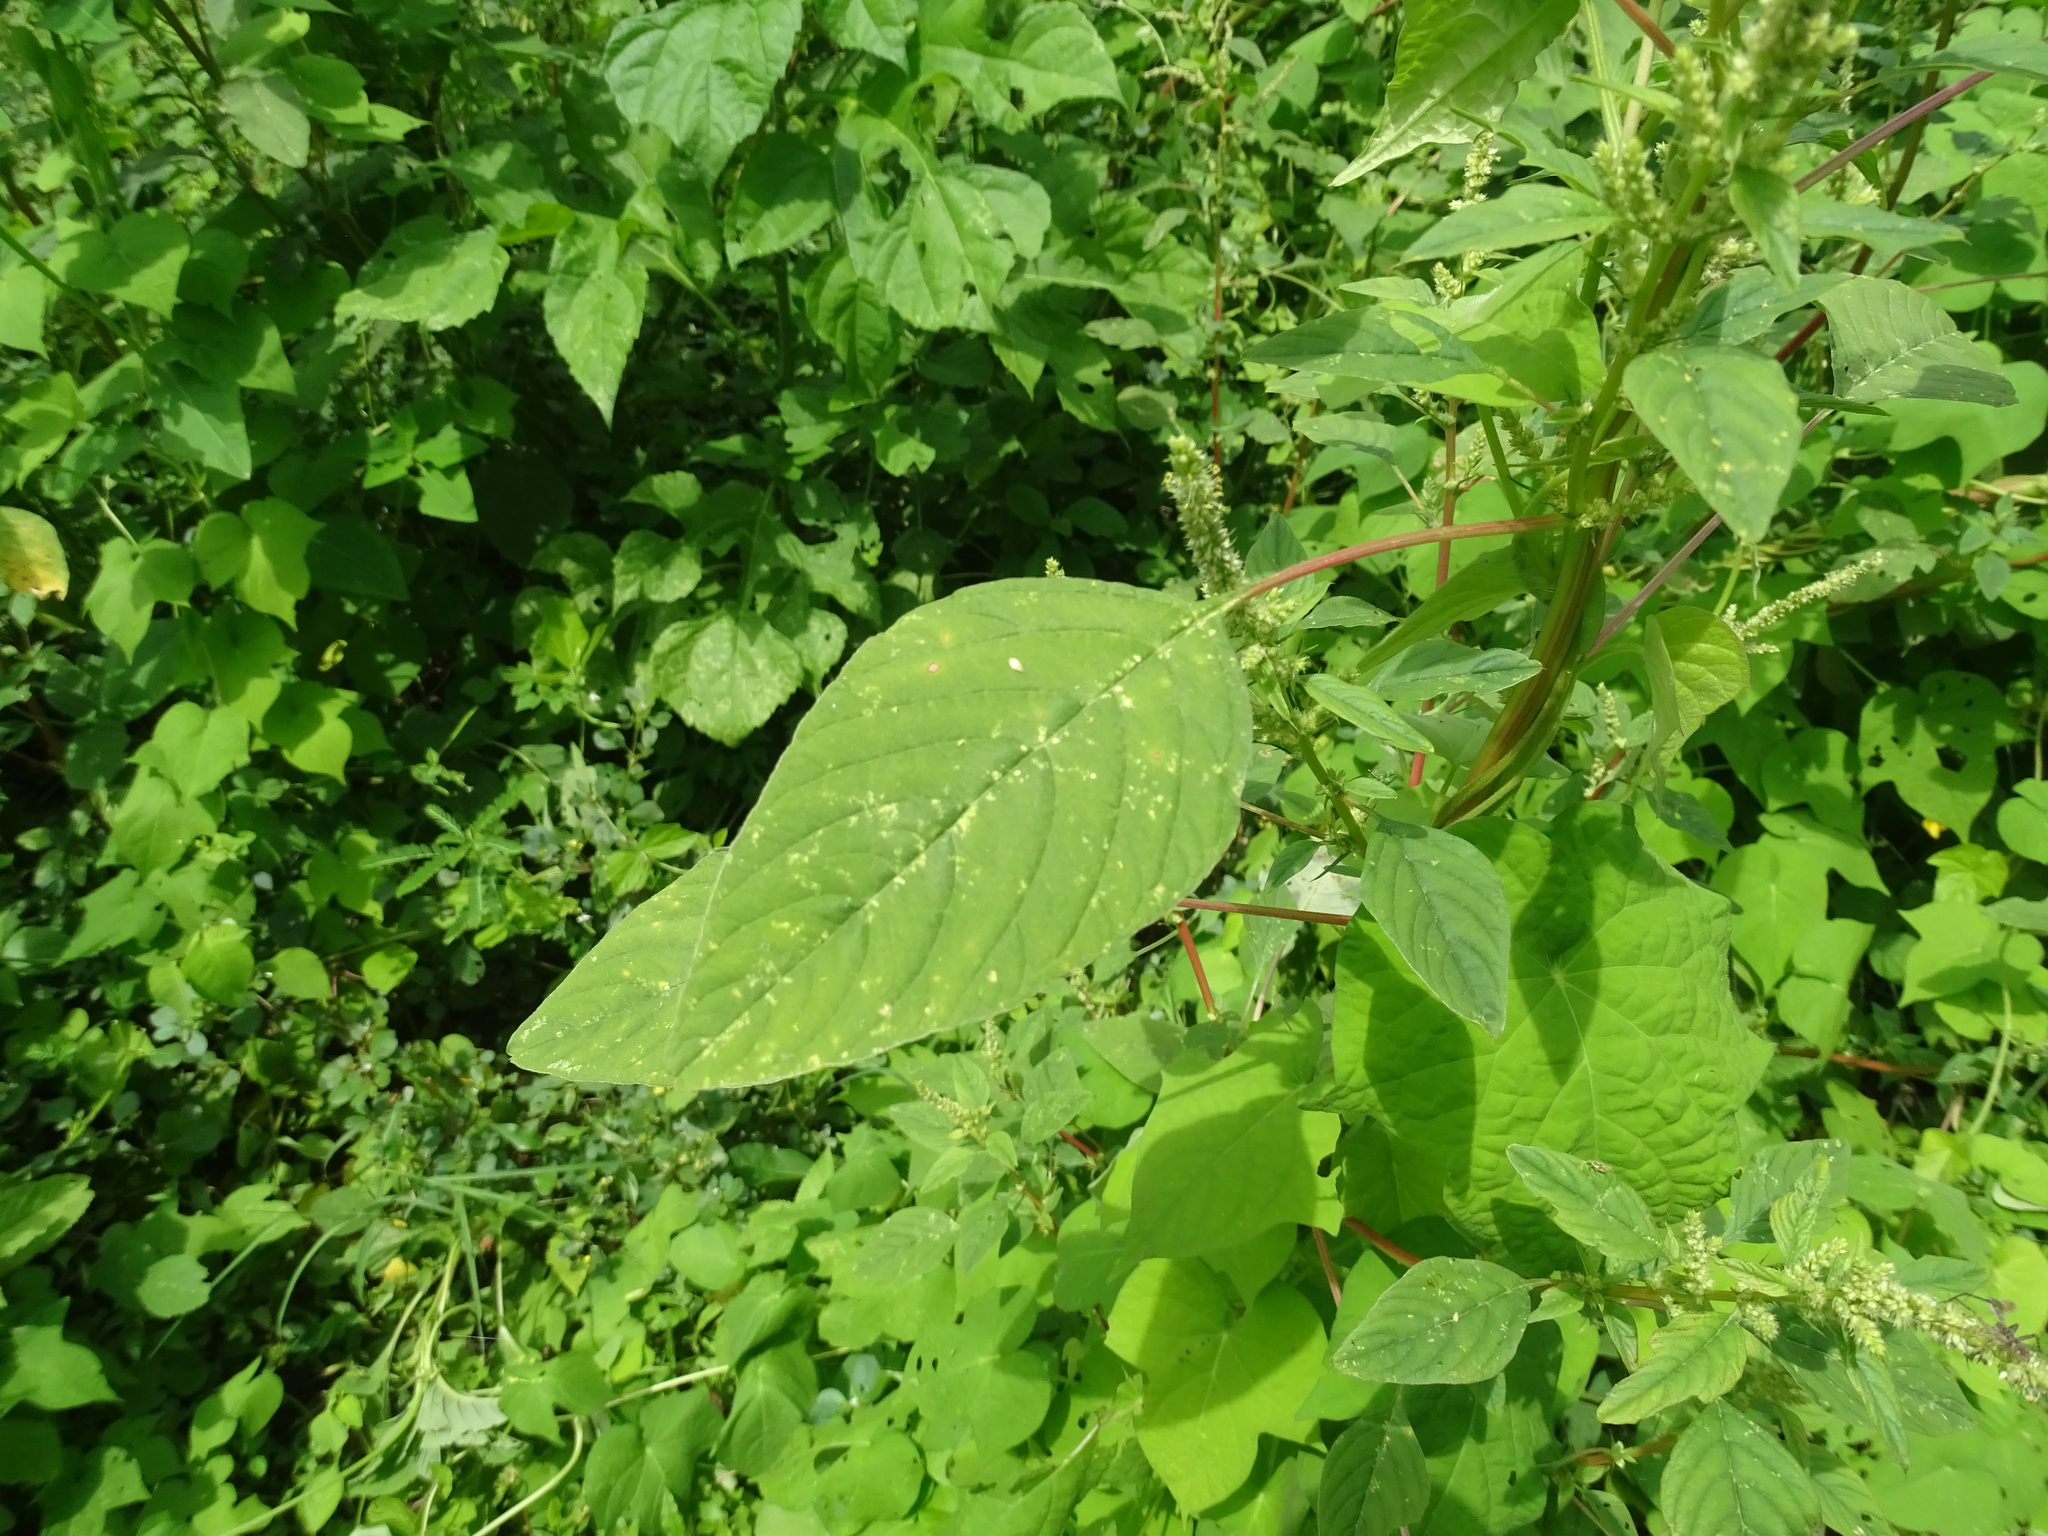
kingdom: Plantae
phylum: Tracheophyta
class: Magnoliopsida
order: Caryophyllales
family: Amaranthaceae
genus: Amaranthus
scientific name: Amaranthus spinosus
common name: Spiny amaranth
